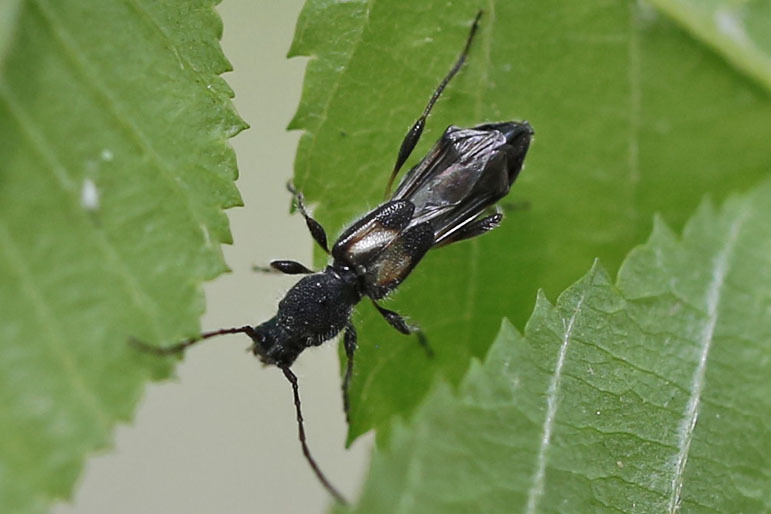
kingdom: Animalia
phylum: Arthropoda
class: Insecta
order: Coleoptera
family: Cerambycidae
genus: Molorchus
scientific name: Molorchus bimaculatus
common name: Bimaculate longhorn beetle
